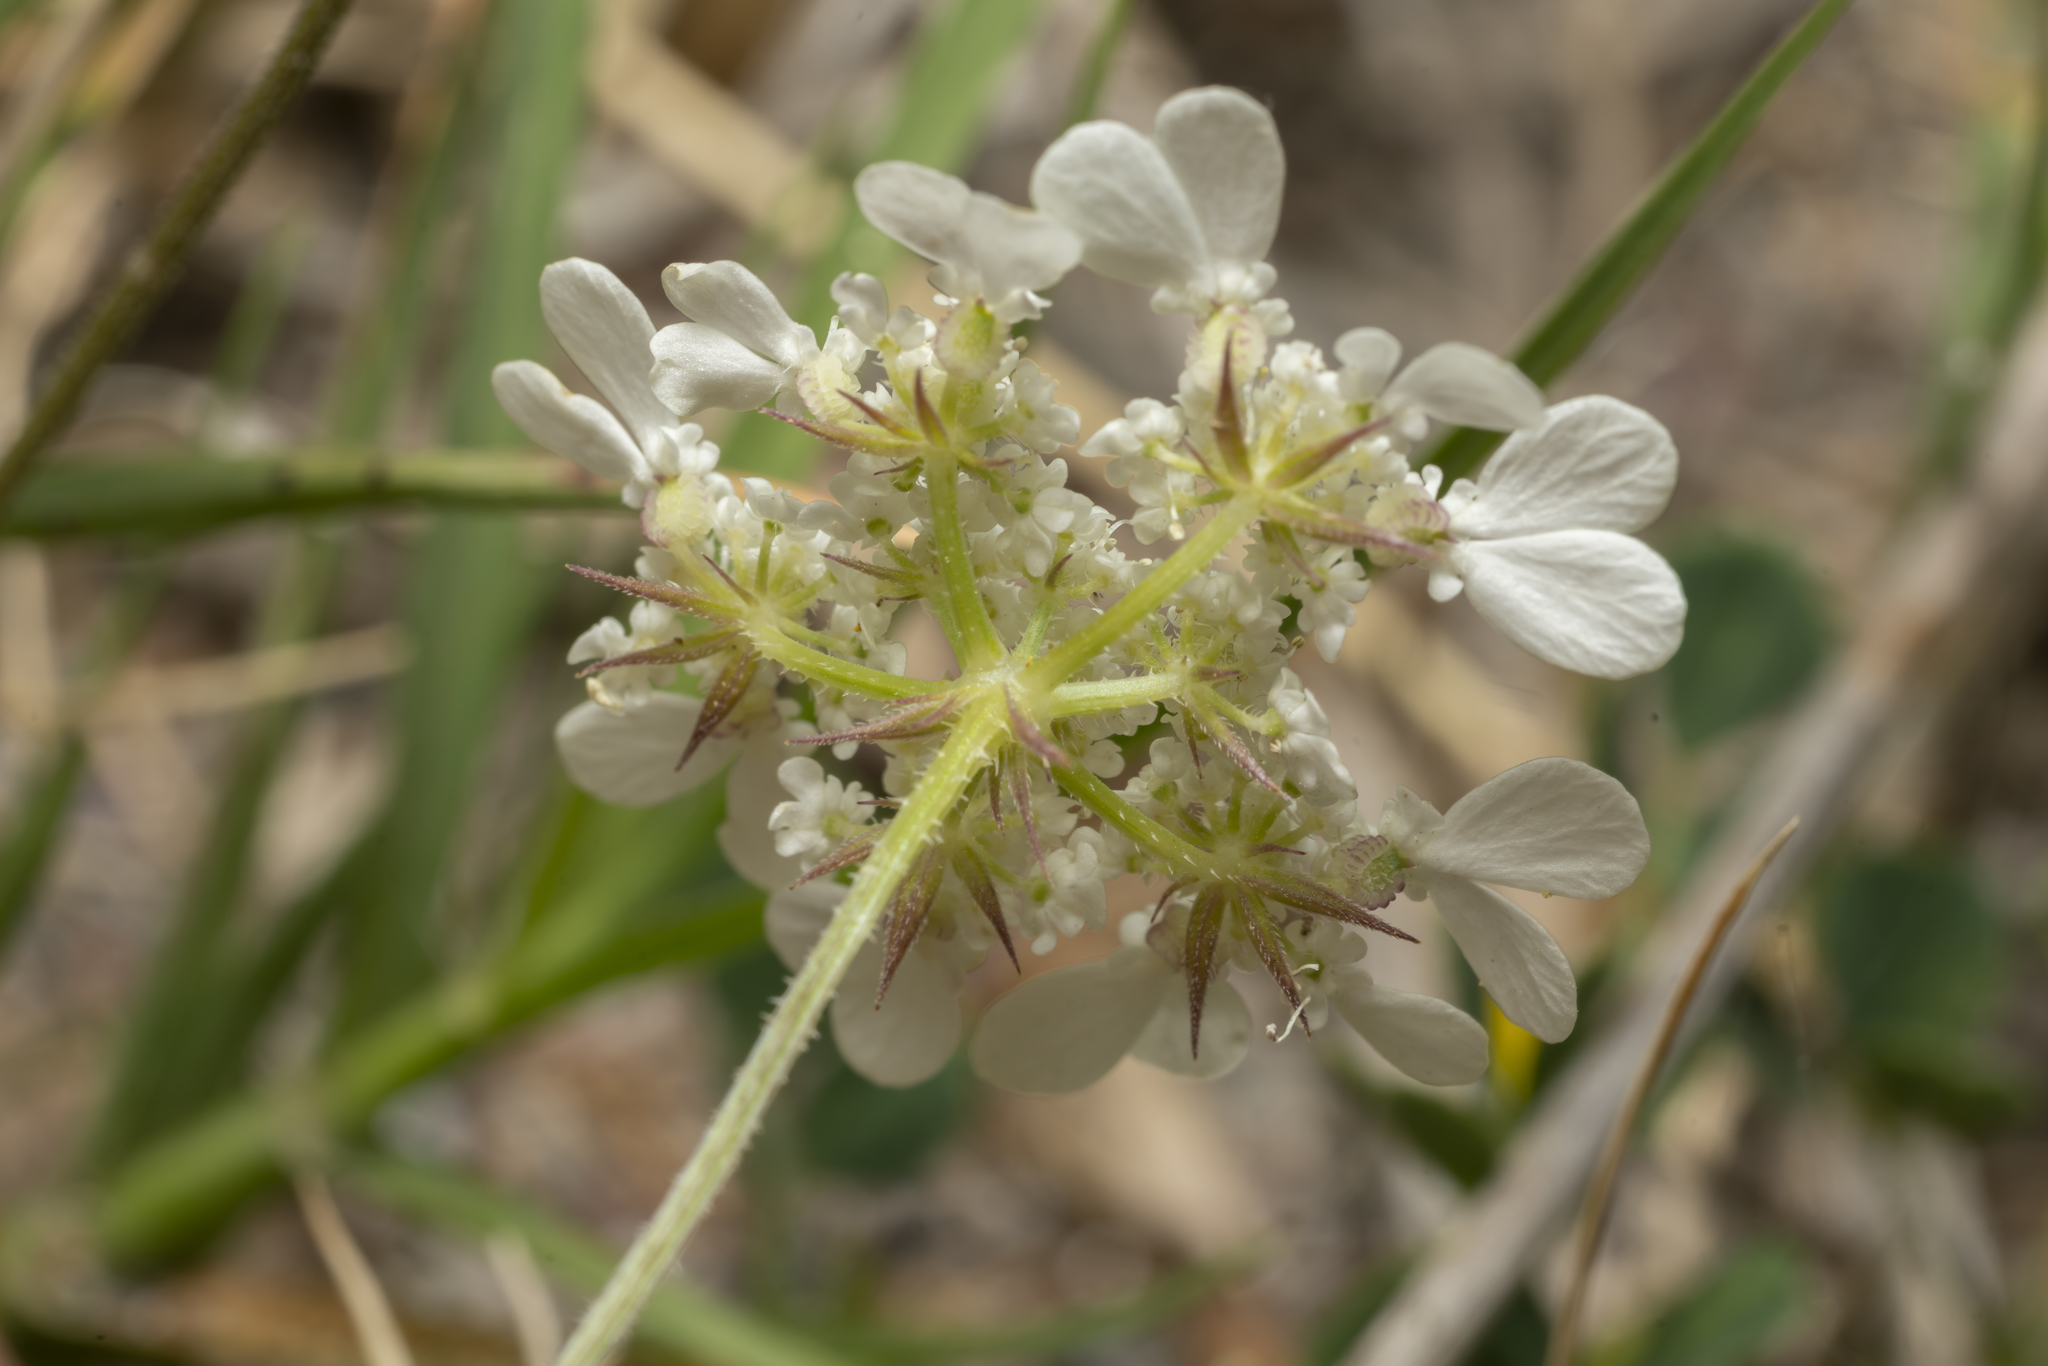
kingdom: Plantae
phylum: Tracheophyta
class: Magnoliopsida
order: Apiales
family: Apiaceae
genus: Tordylium
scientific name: Tordylium aegaeum
